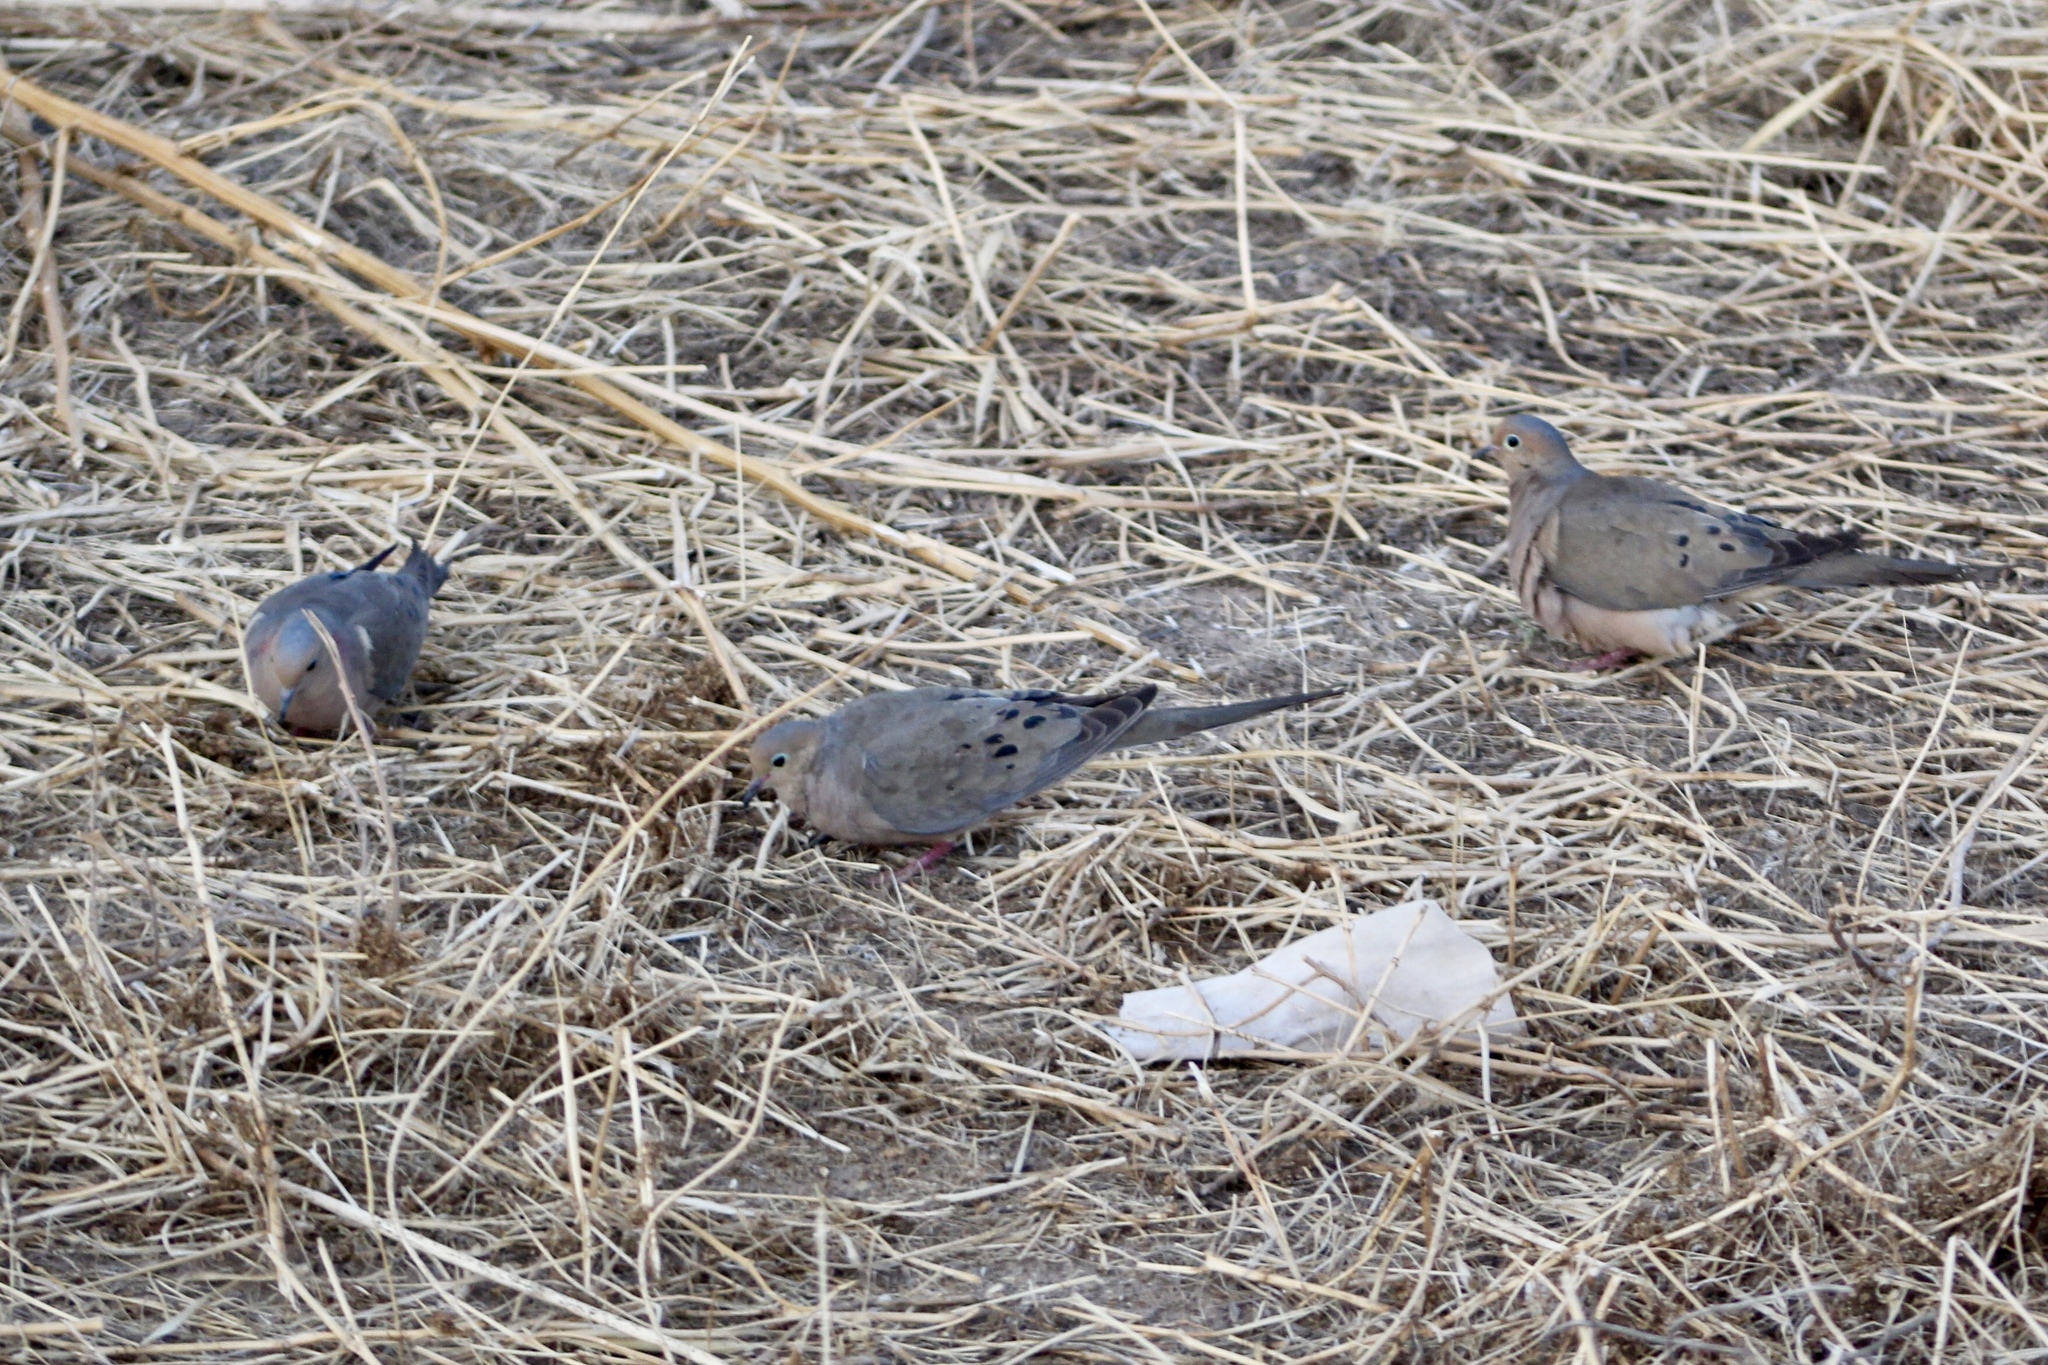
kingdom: Animalia
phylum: Chordata
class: Aves
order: Columbiformes
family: Columbidae
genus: Zenaida
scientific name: Zenaida macroura
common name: Mourning dove
